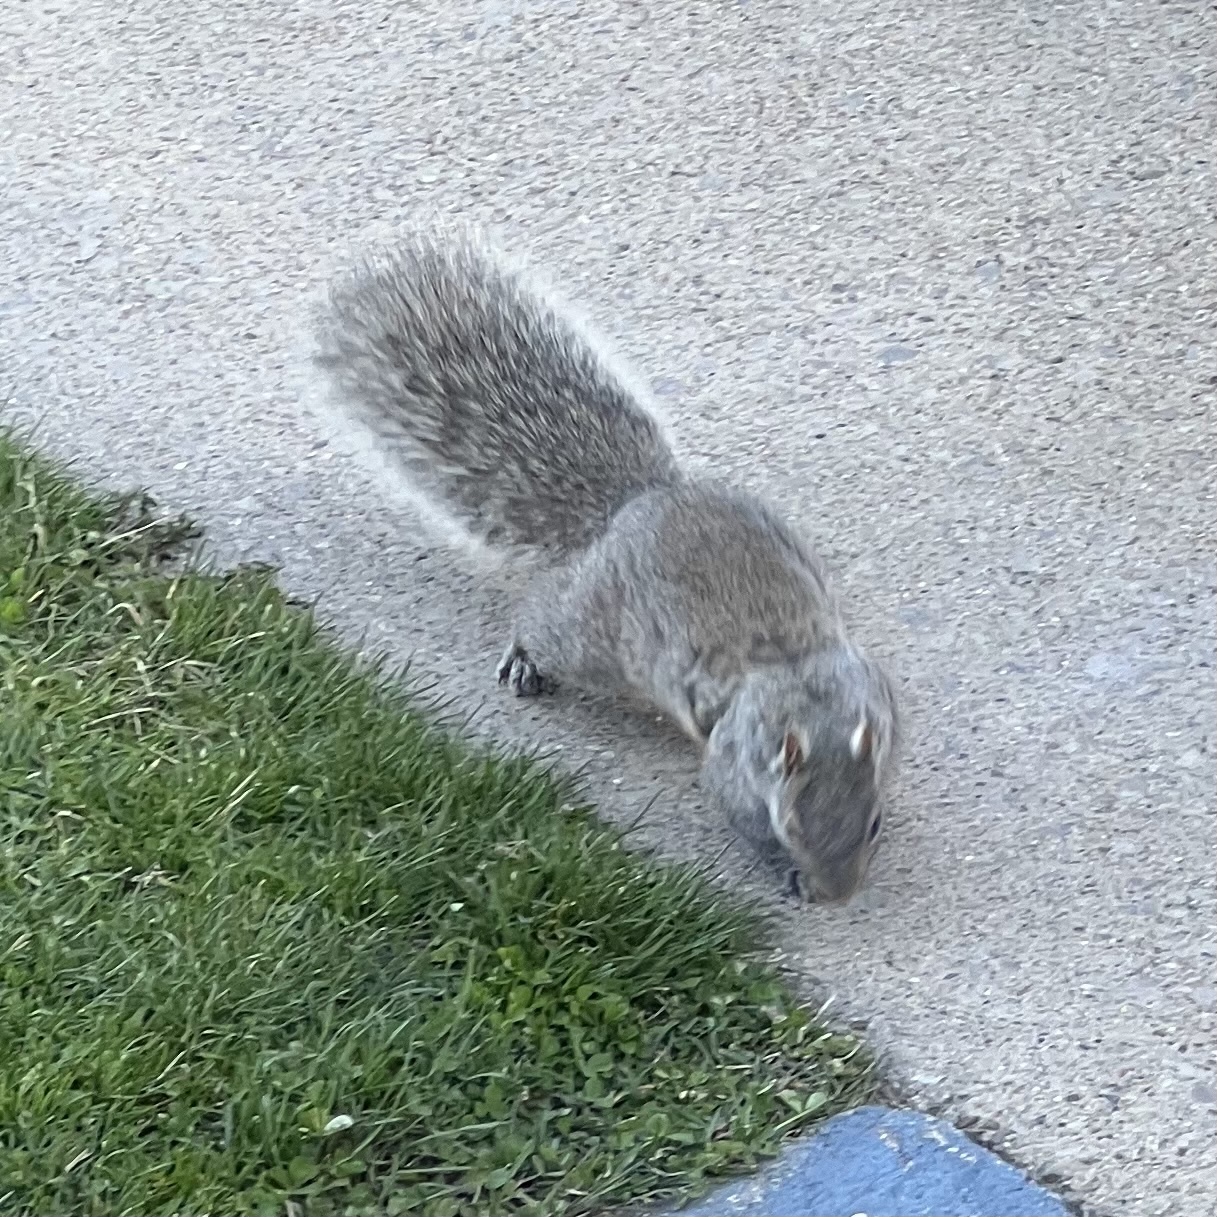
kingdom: Animalia
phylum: Chordata
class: Mammalia
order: Rodentia
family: Sciuridae
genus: Sciurus
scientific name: Sciurus carolinensis
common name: Eastern gray squirrel
